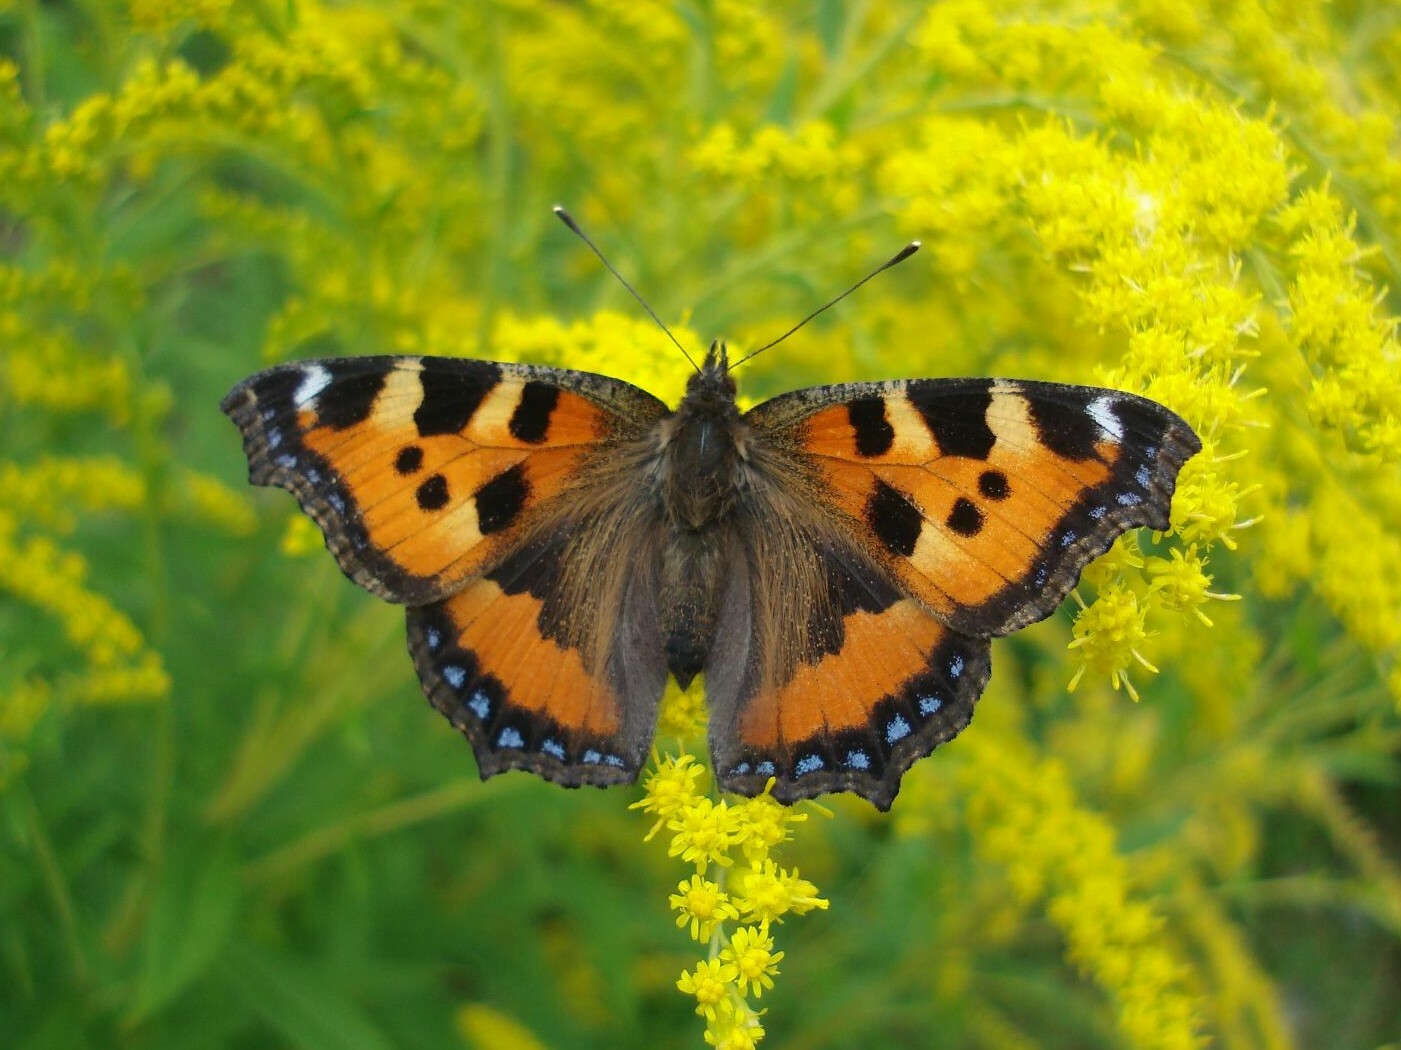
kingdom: Animalia
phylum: Arthropoda
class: Insecta
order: Lepidoptera
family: Nymphalidae
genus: Aglais
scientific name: Aglais urticae
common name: Small tortoiseshell
